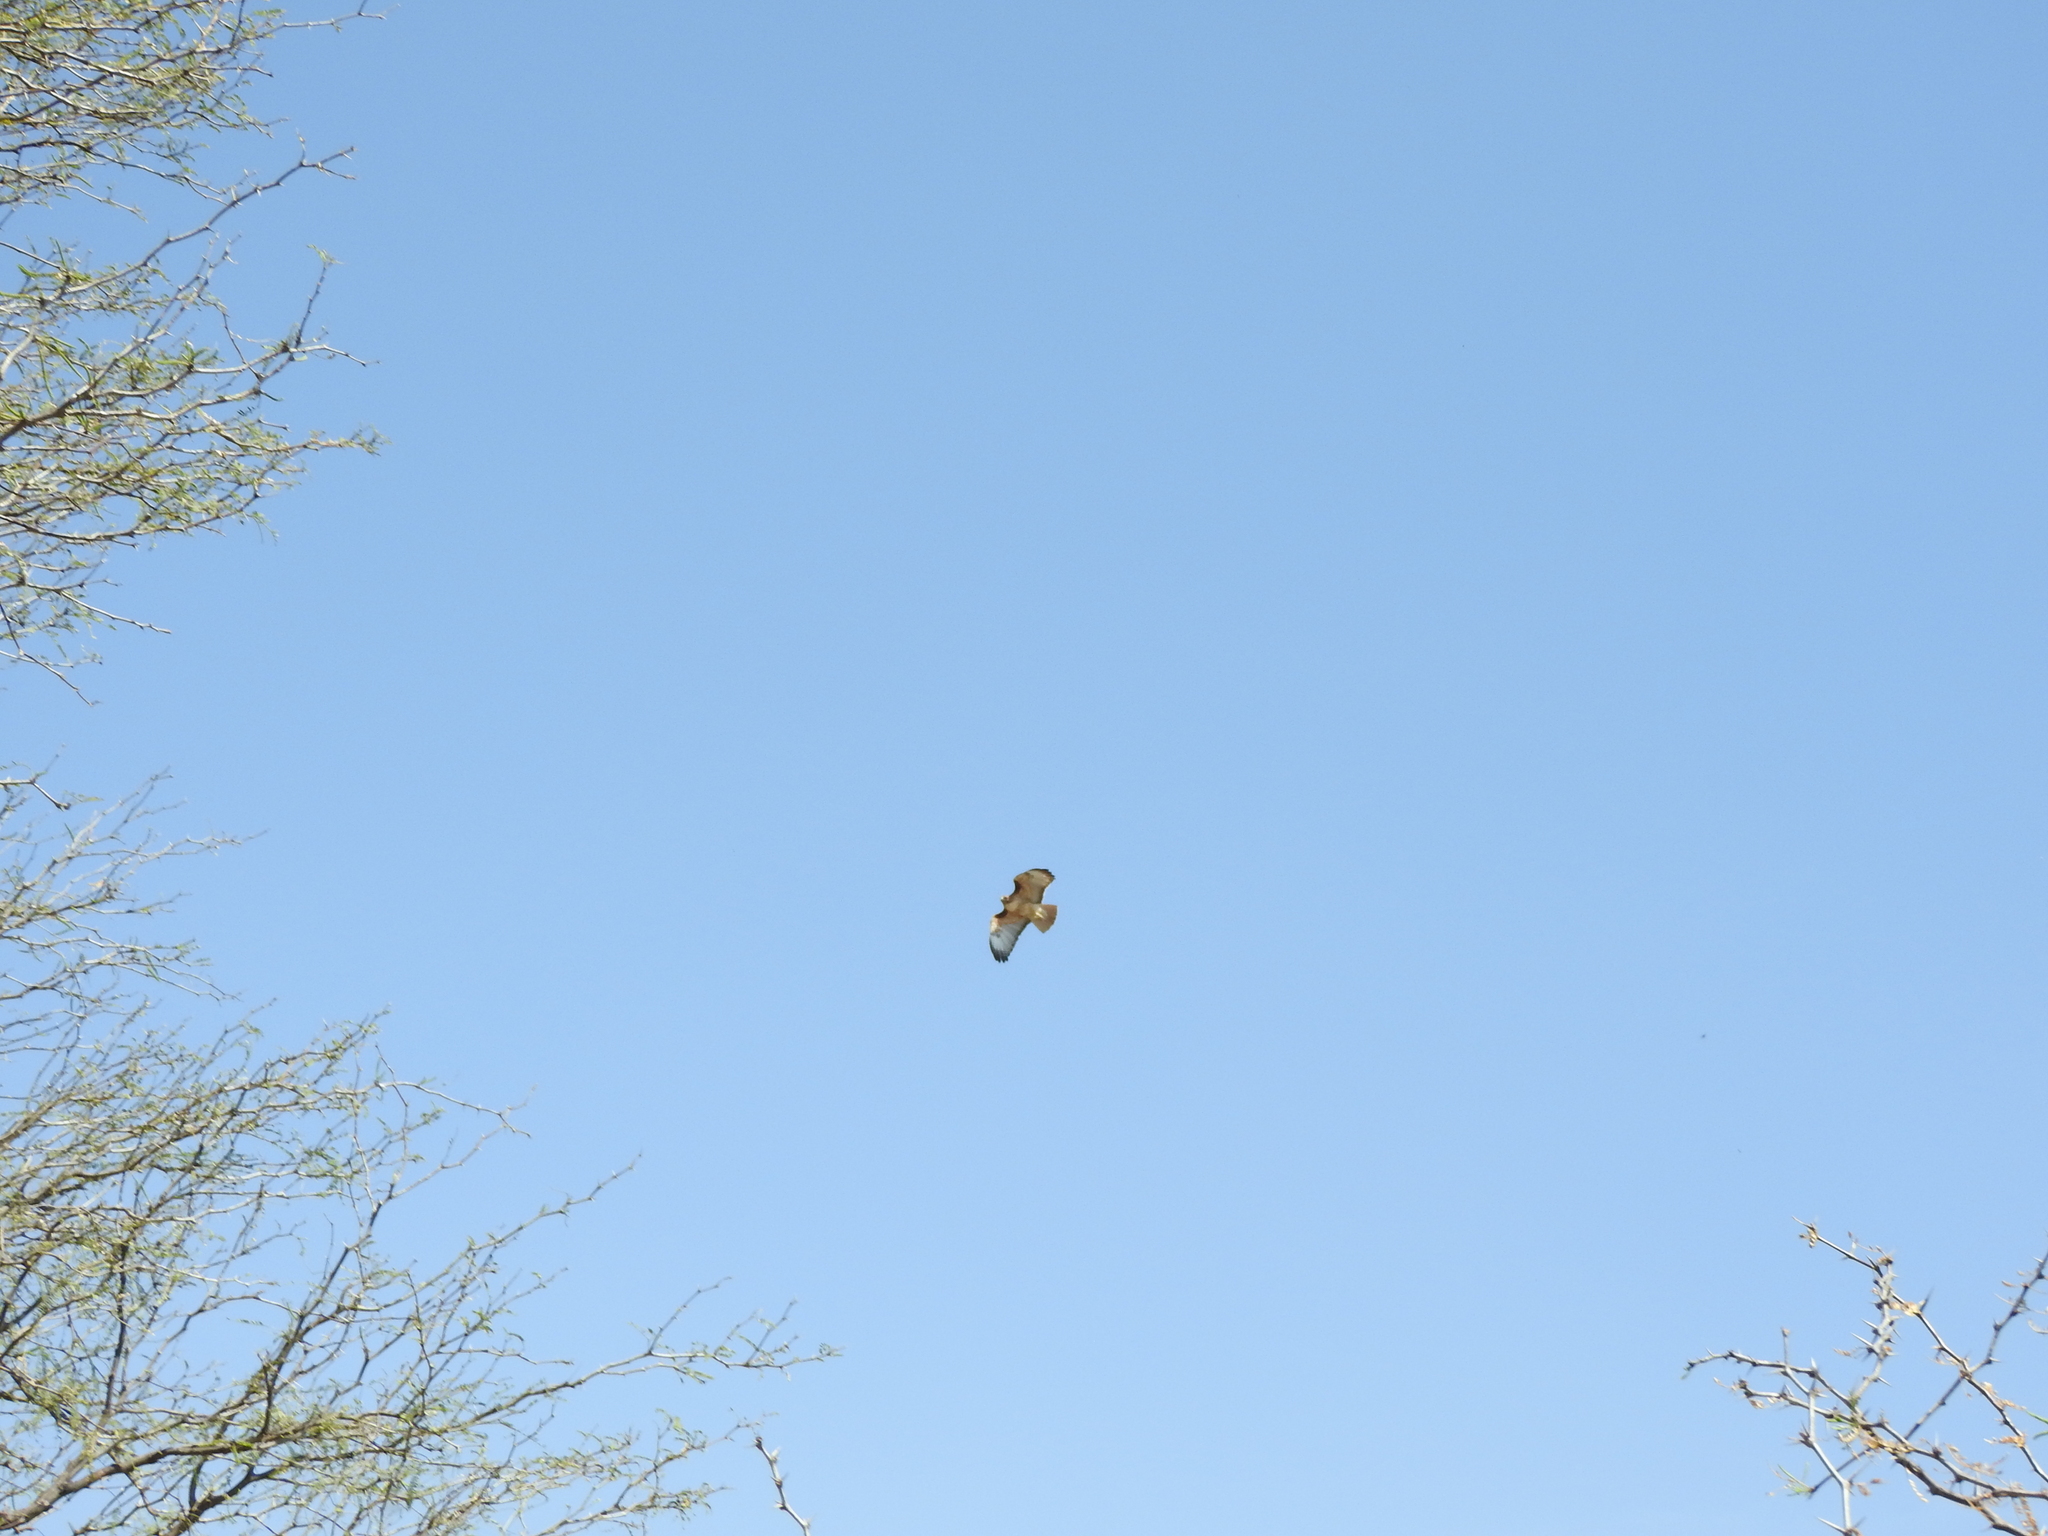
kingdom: Animalia
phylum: Chordata
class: Aves
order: Accipitriformes
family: Accipitridae
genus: Buteo
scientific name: Buteo jamaicensis
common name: Red-tailed hawk
